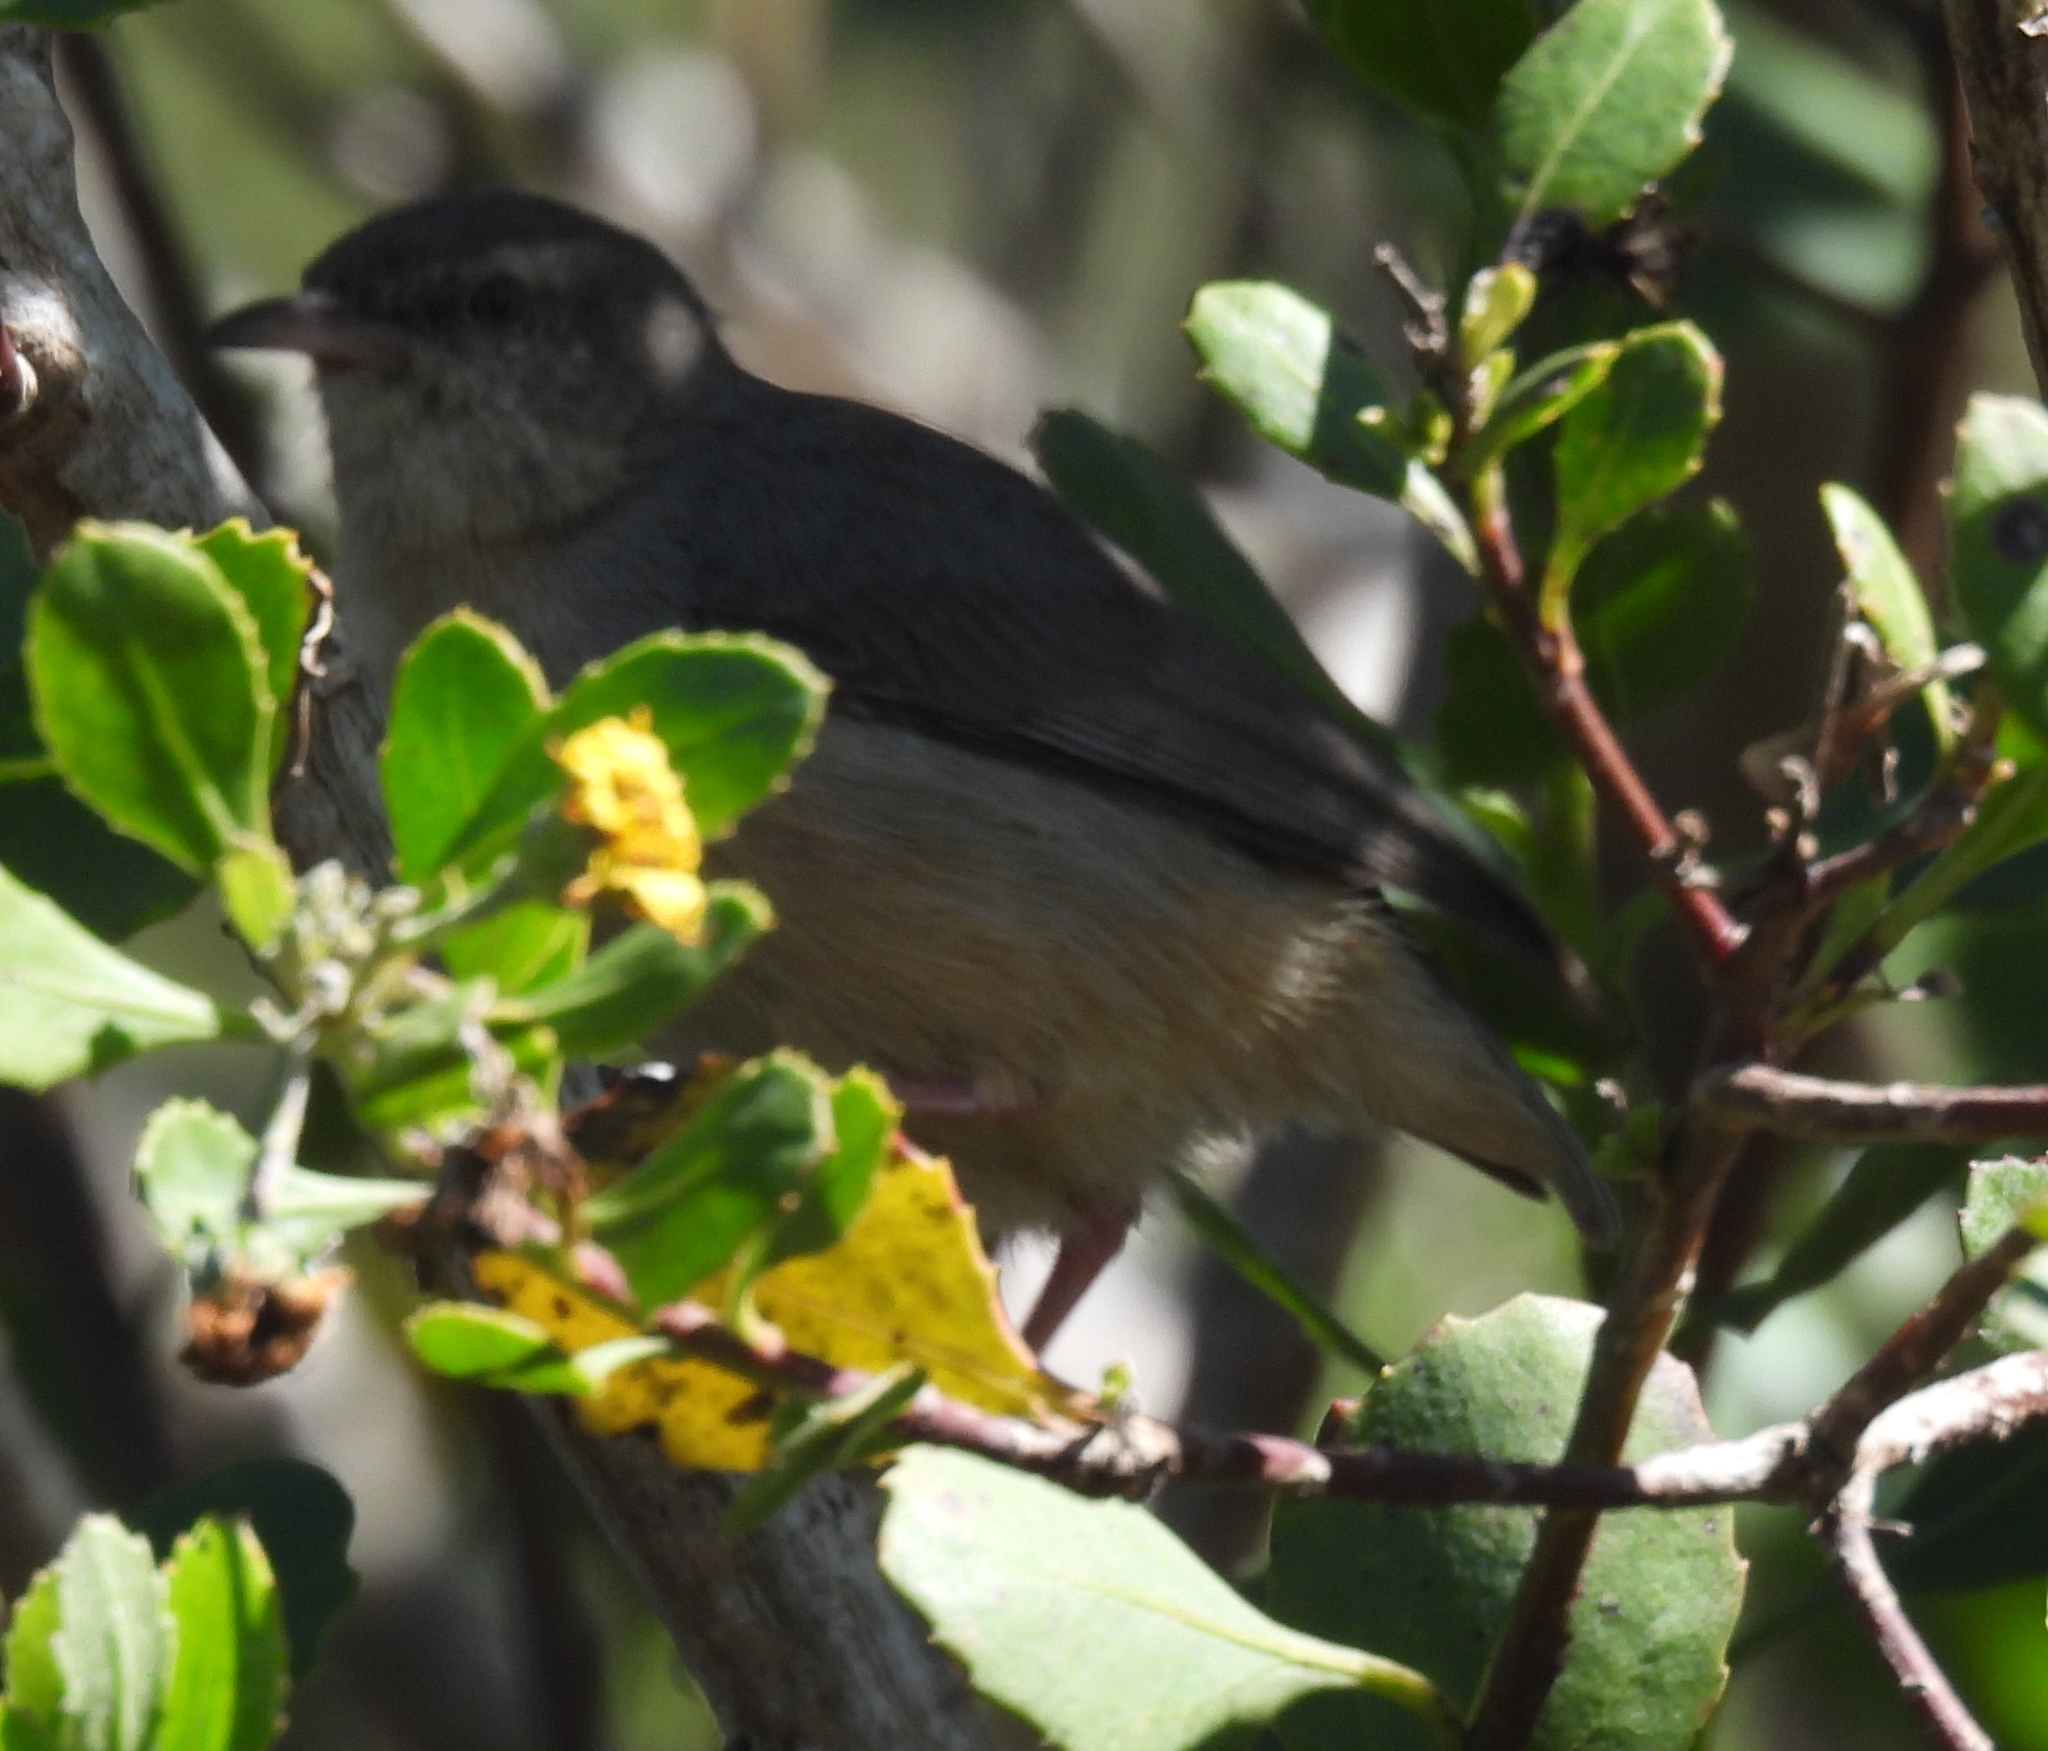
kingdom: Animalia
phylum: Chordata
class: Aves
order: Passeriformes
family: Macrosphenidae
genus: Sylvietta
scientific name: Sylvietta rufescens
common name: Long-billed crombec
